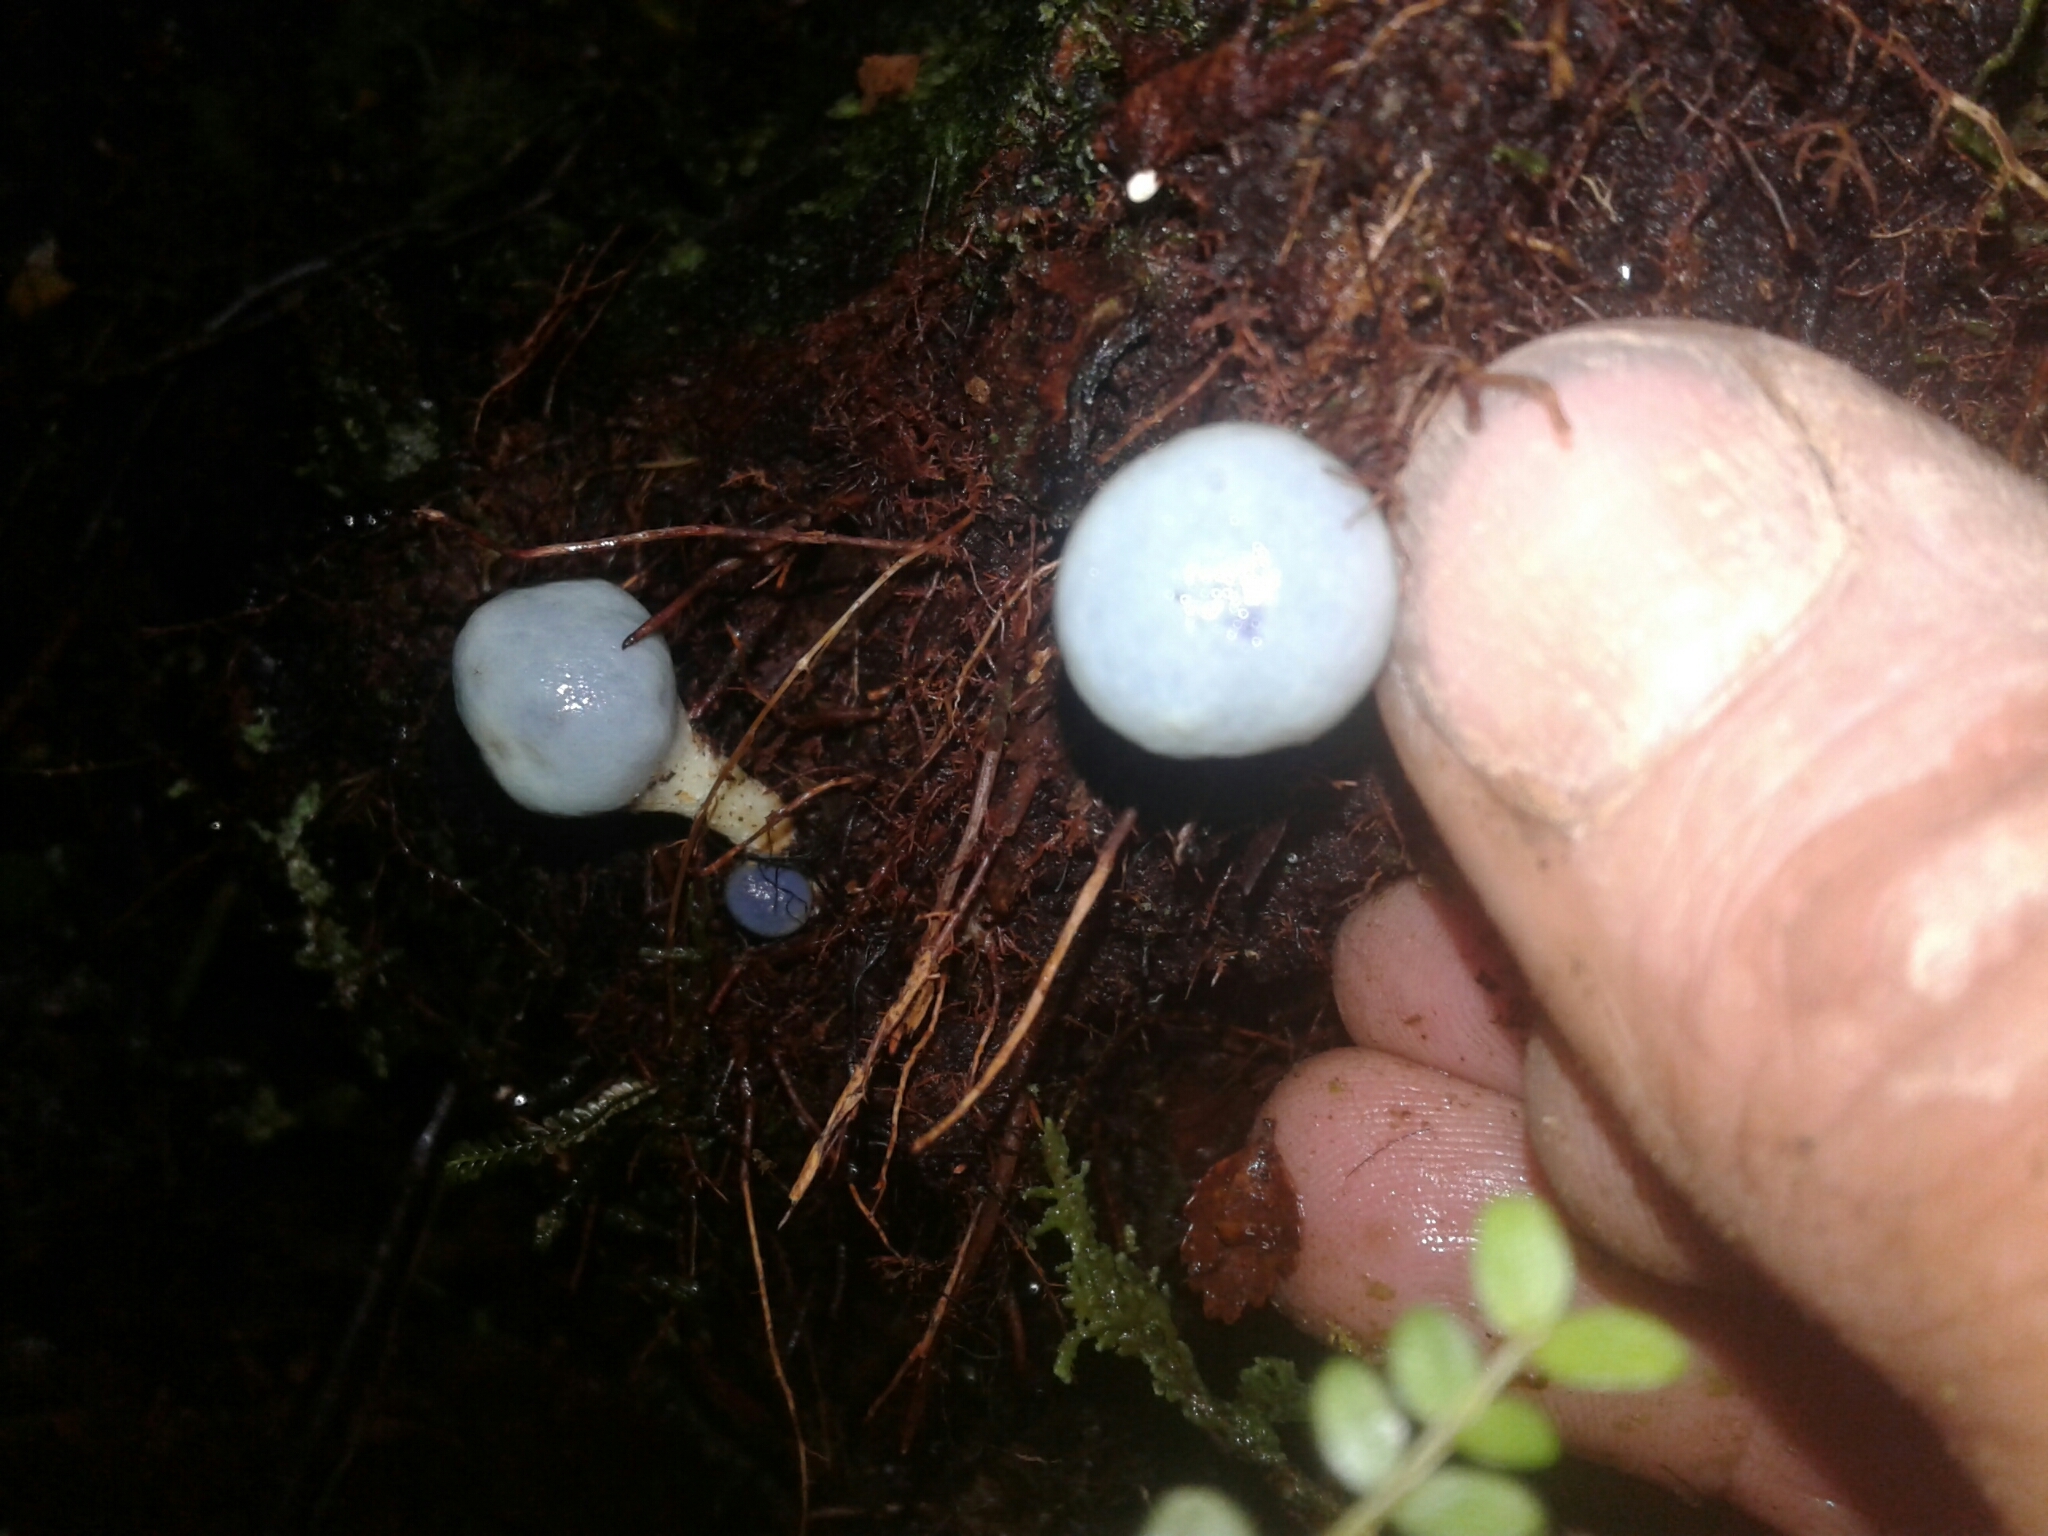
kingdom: Fungi
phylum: Basidiomycota
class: Agaricomycetes
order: Agaricales
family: Agaricaceae
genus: Clavogaster
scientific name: Clavogaster virescens
